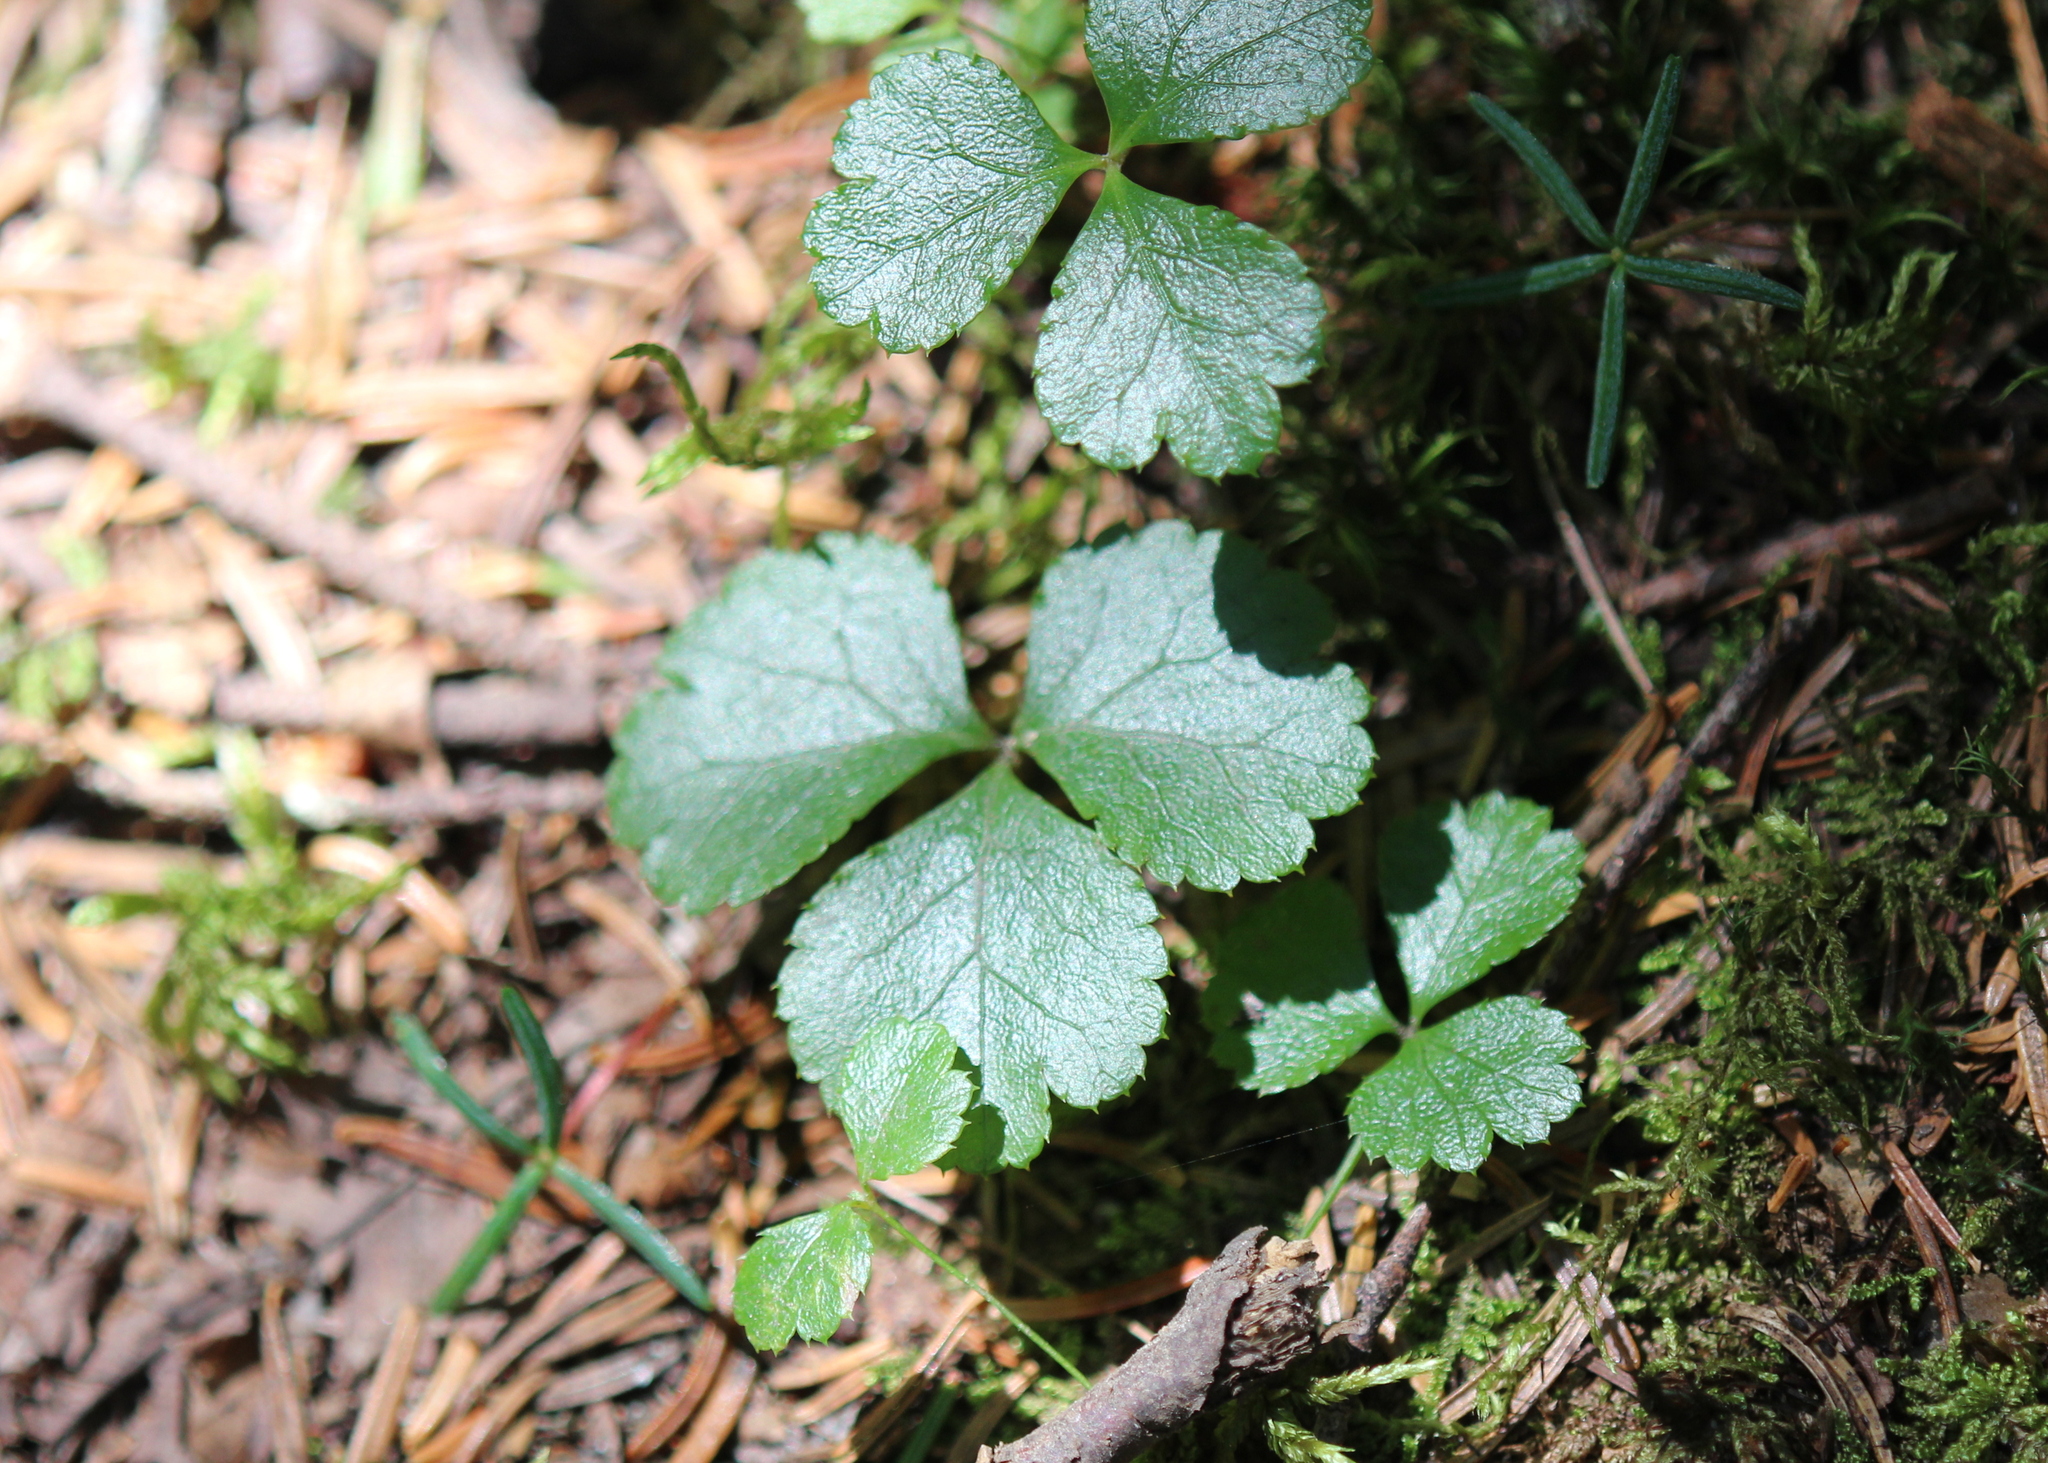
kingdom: Plantae
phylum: Tracheophyta
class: Magnoliopsida
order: Ranunculales
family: Ranunculaceae
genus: Coptis
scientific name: Coptis trifolia
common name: Canker-root
